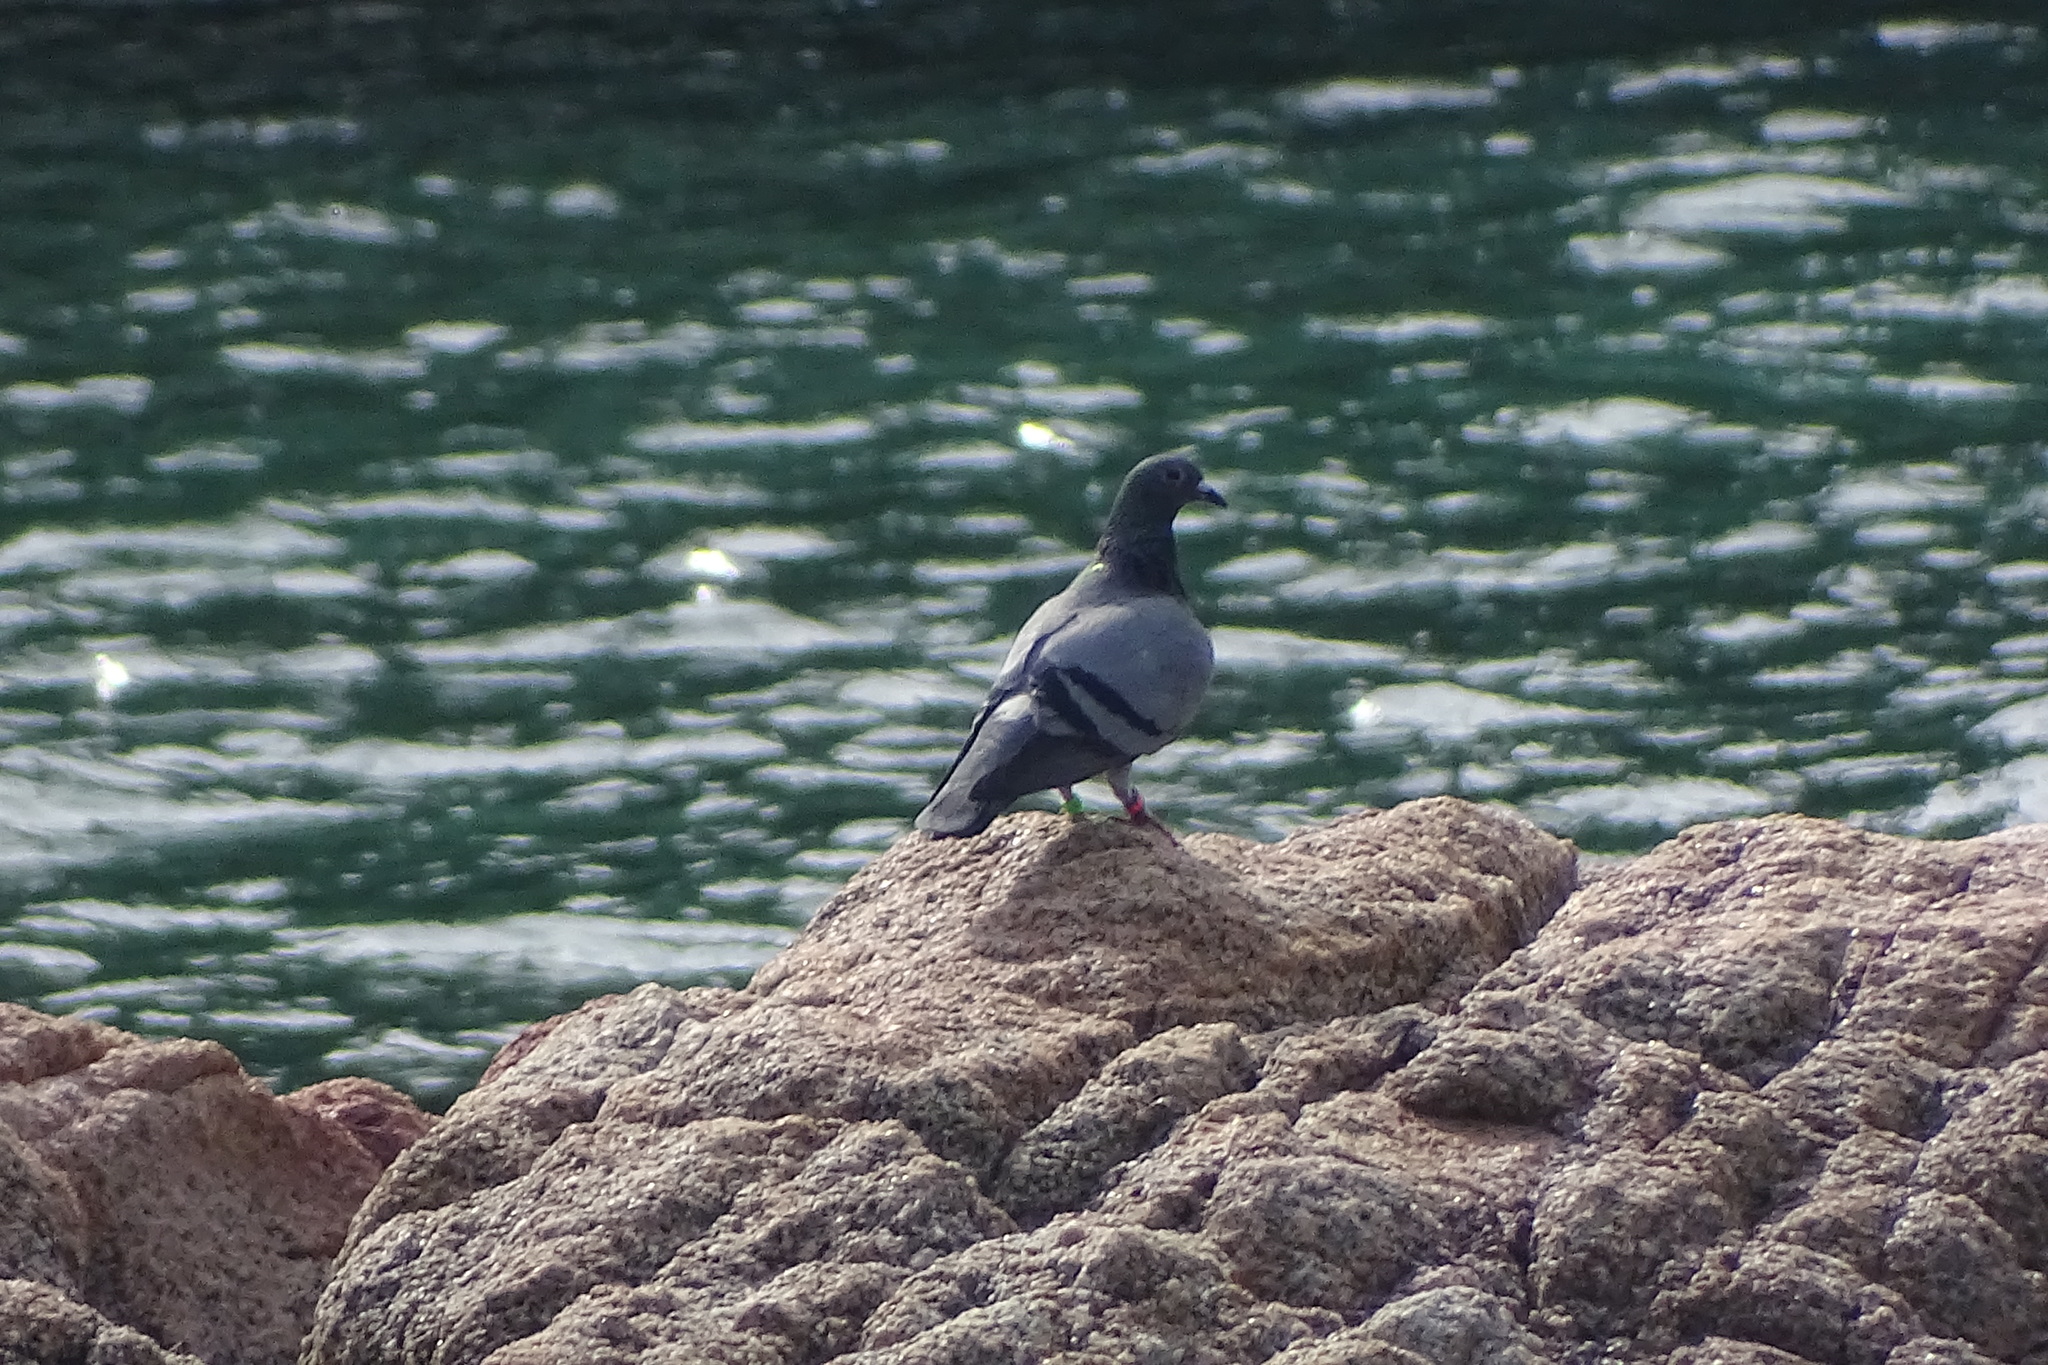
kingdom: Animalia
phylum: Chordata
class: Aves
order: Columbiformes
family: Columbidae
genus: Columba
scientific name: Columba livia
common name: Rock pigeon
